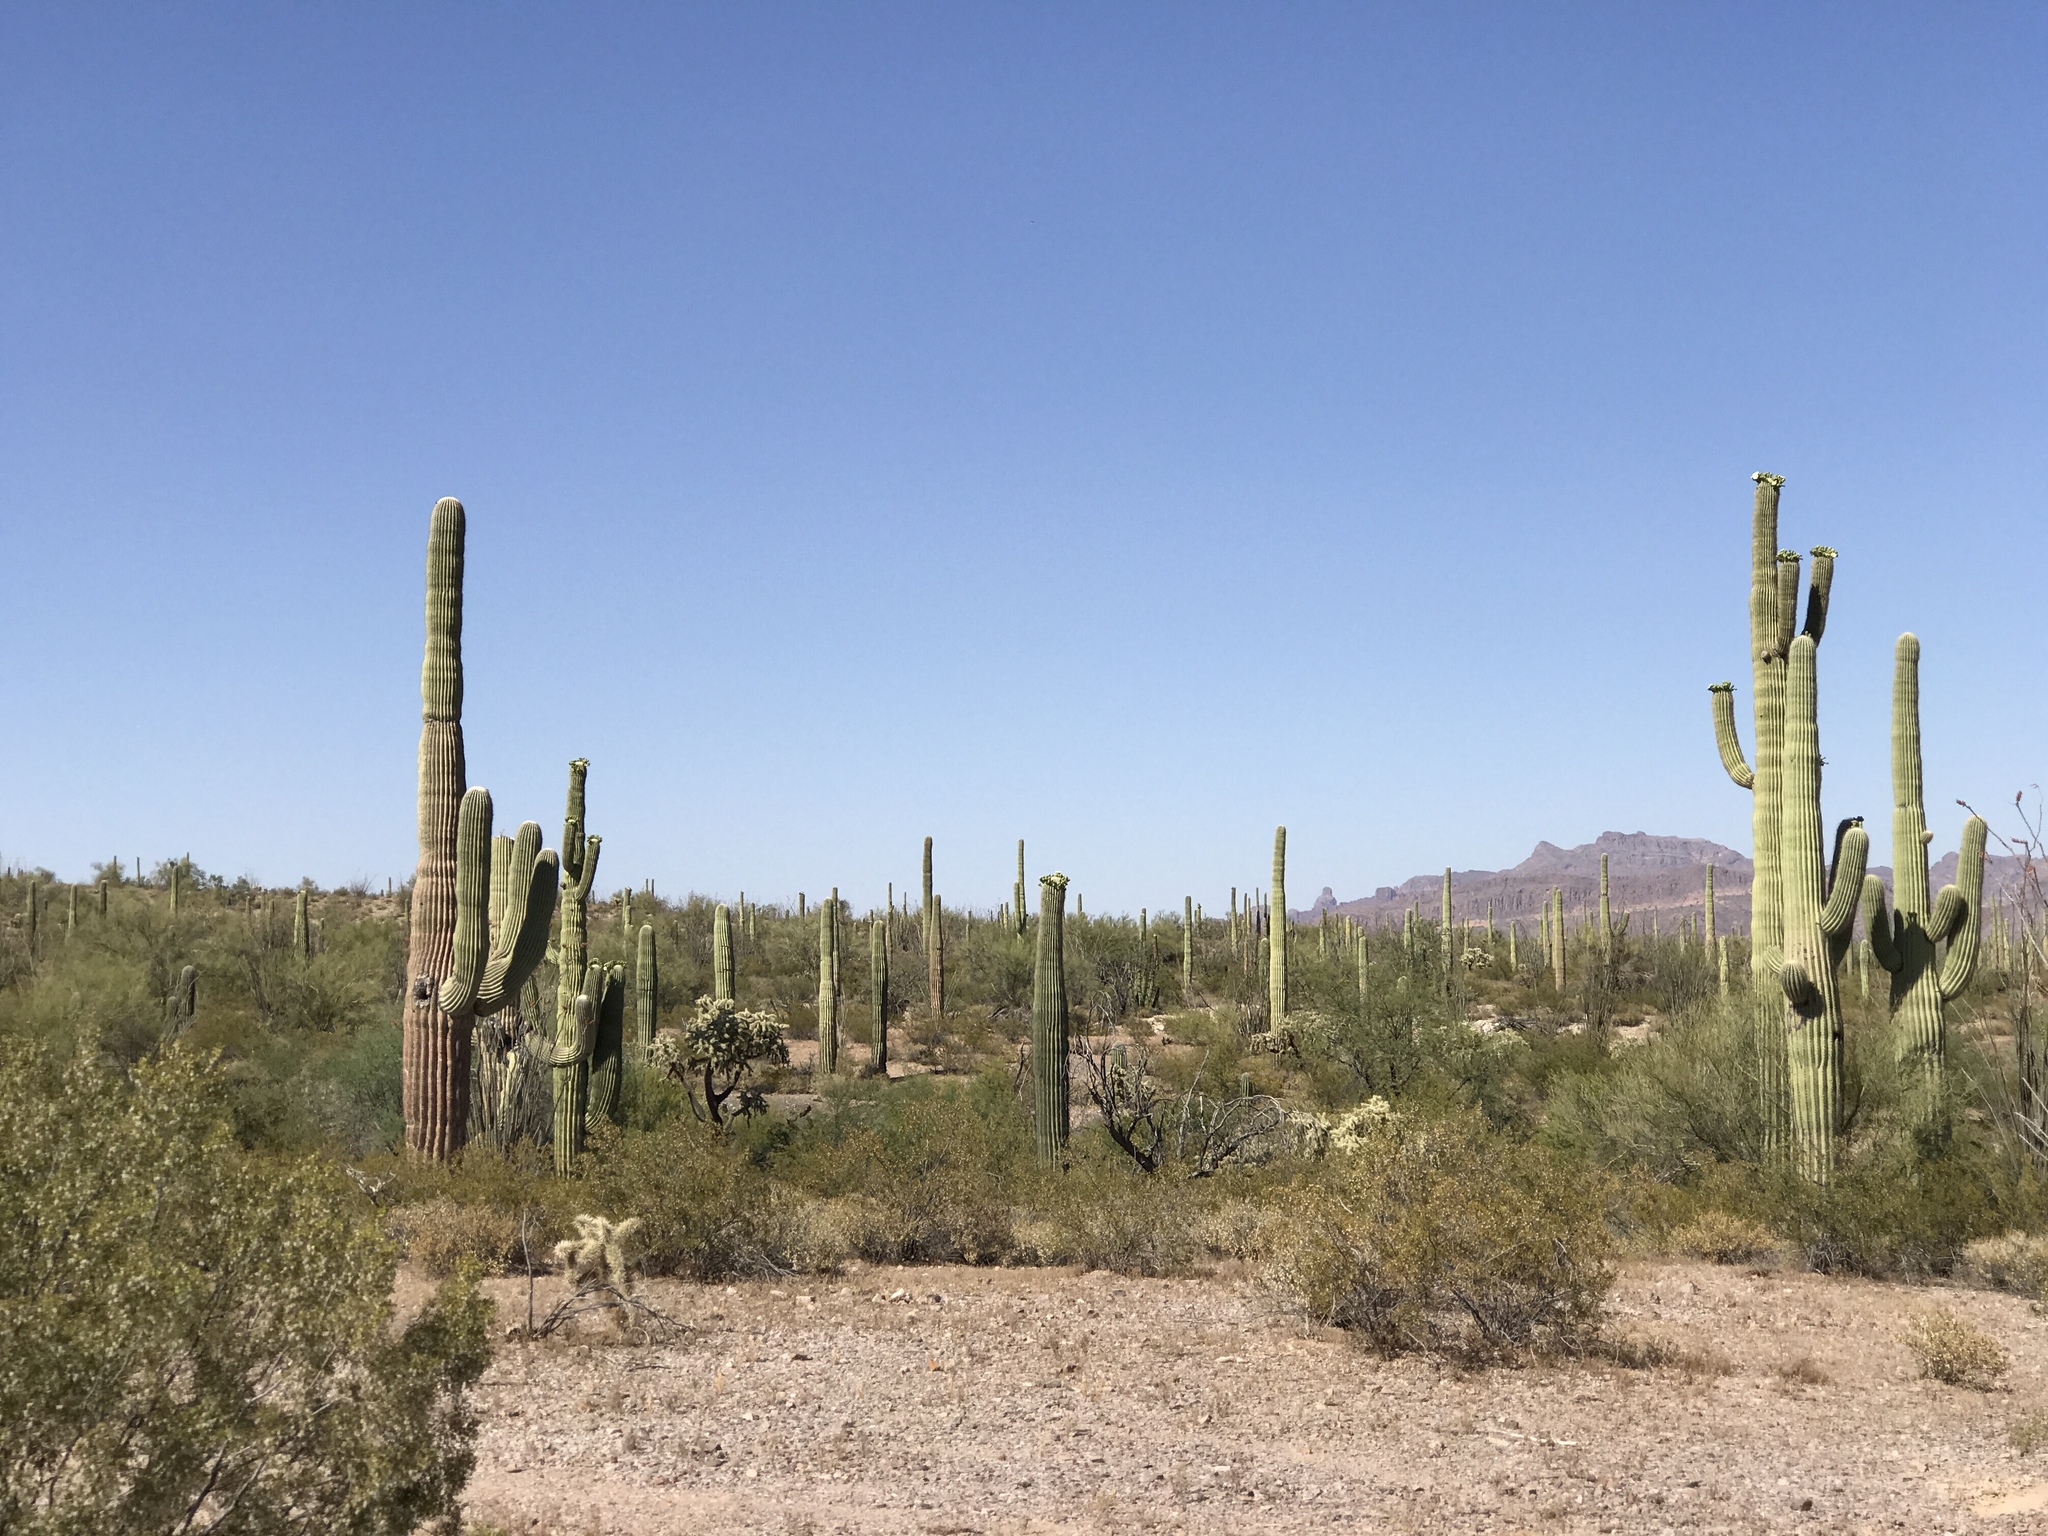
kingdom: Plantae
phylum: Tracheophyta
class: Magnoliopsida
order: Caryophyllales
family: Cactaceae
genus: Carnegiea
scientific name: Carnegiea gigantea
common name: Saguaro
